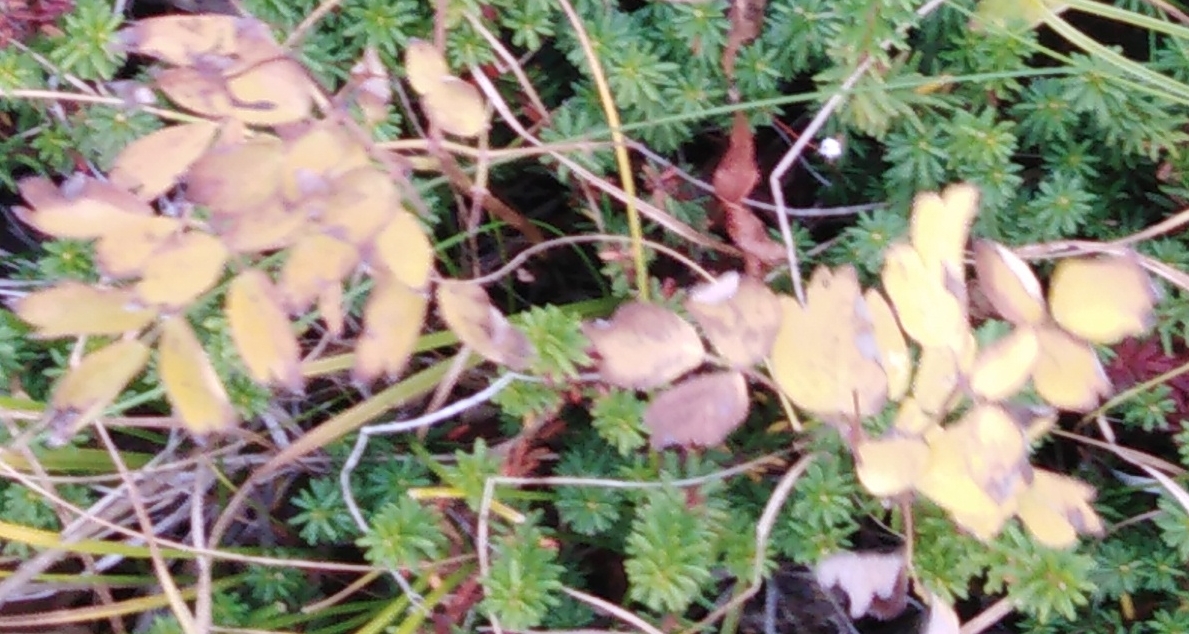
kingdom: Plantae
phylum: Tracheophyta
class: Magnoliopsida
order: Ranunculales
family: Ranunculaceae
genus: Thalictrum
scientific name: Thalictrum minus
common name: Lesser meadow-rue
